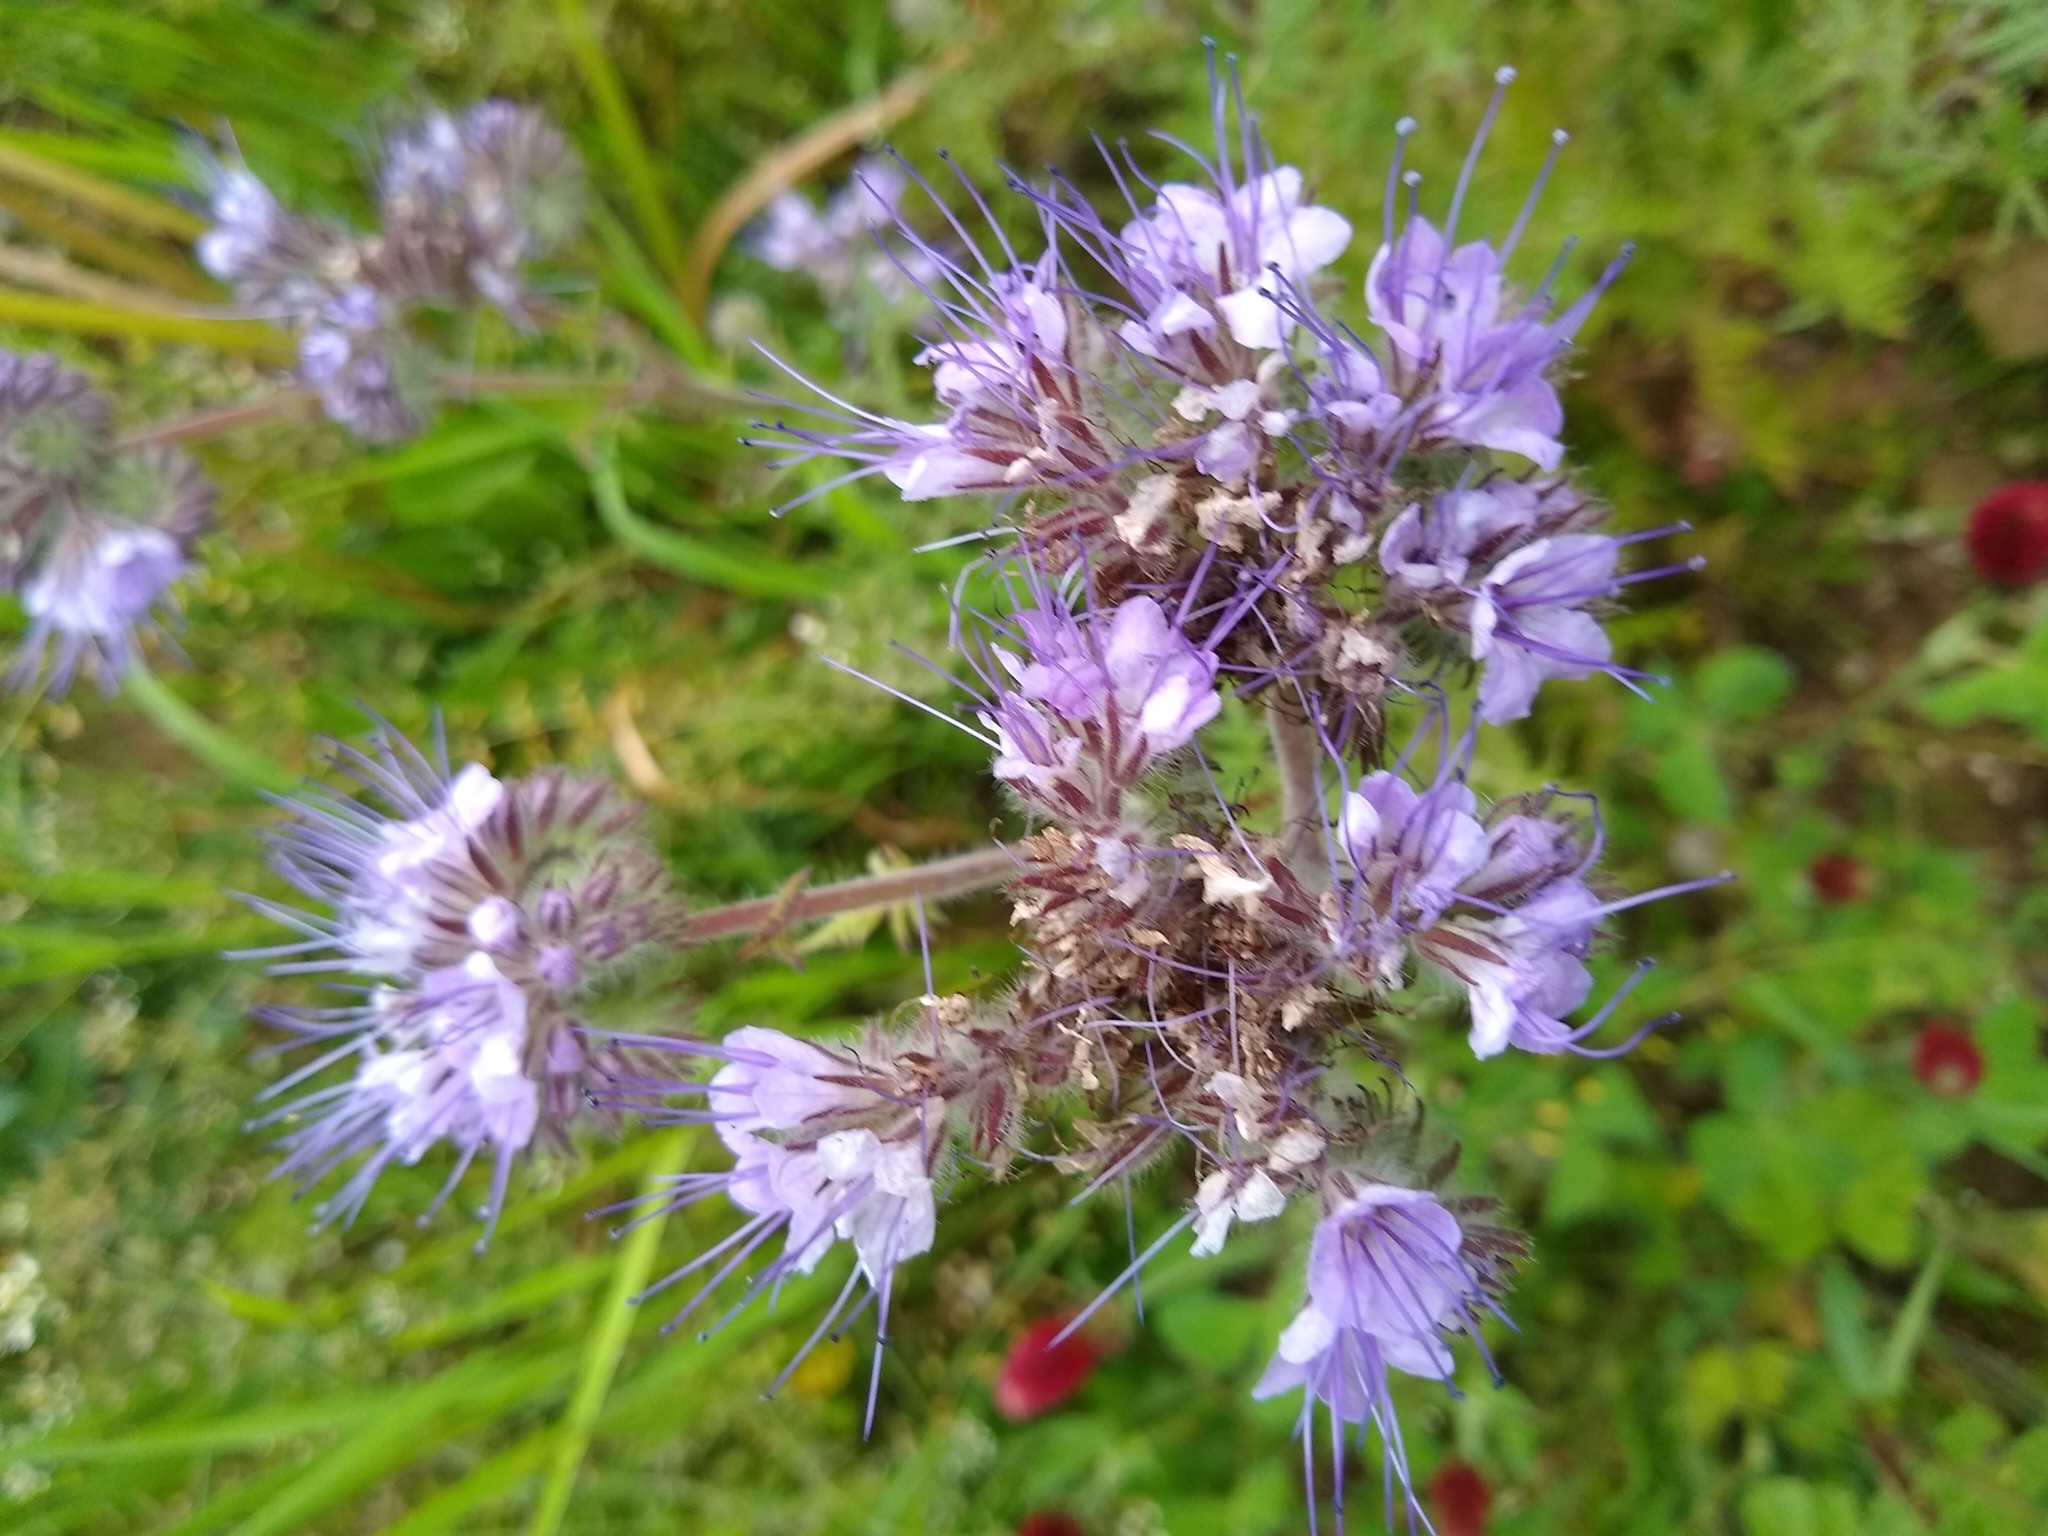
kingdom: Plantae
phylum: Tracheophyta
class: Magnoliopsida
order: Boraginales
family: Hydrophyllaceae
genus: Phacelia
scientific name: Phacelia tanacetifolia
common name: Phacelia
